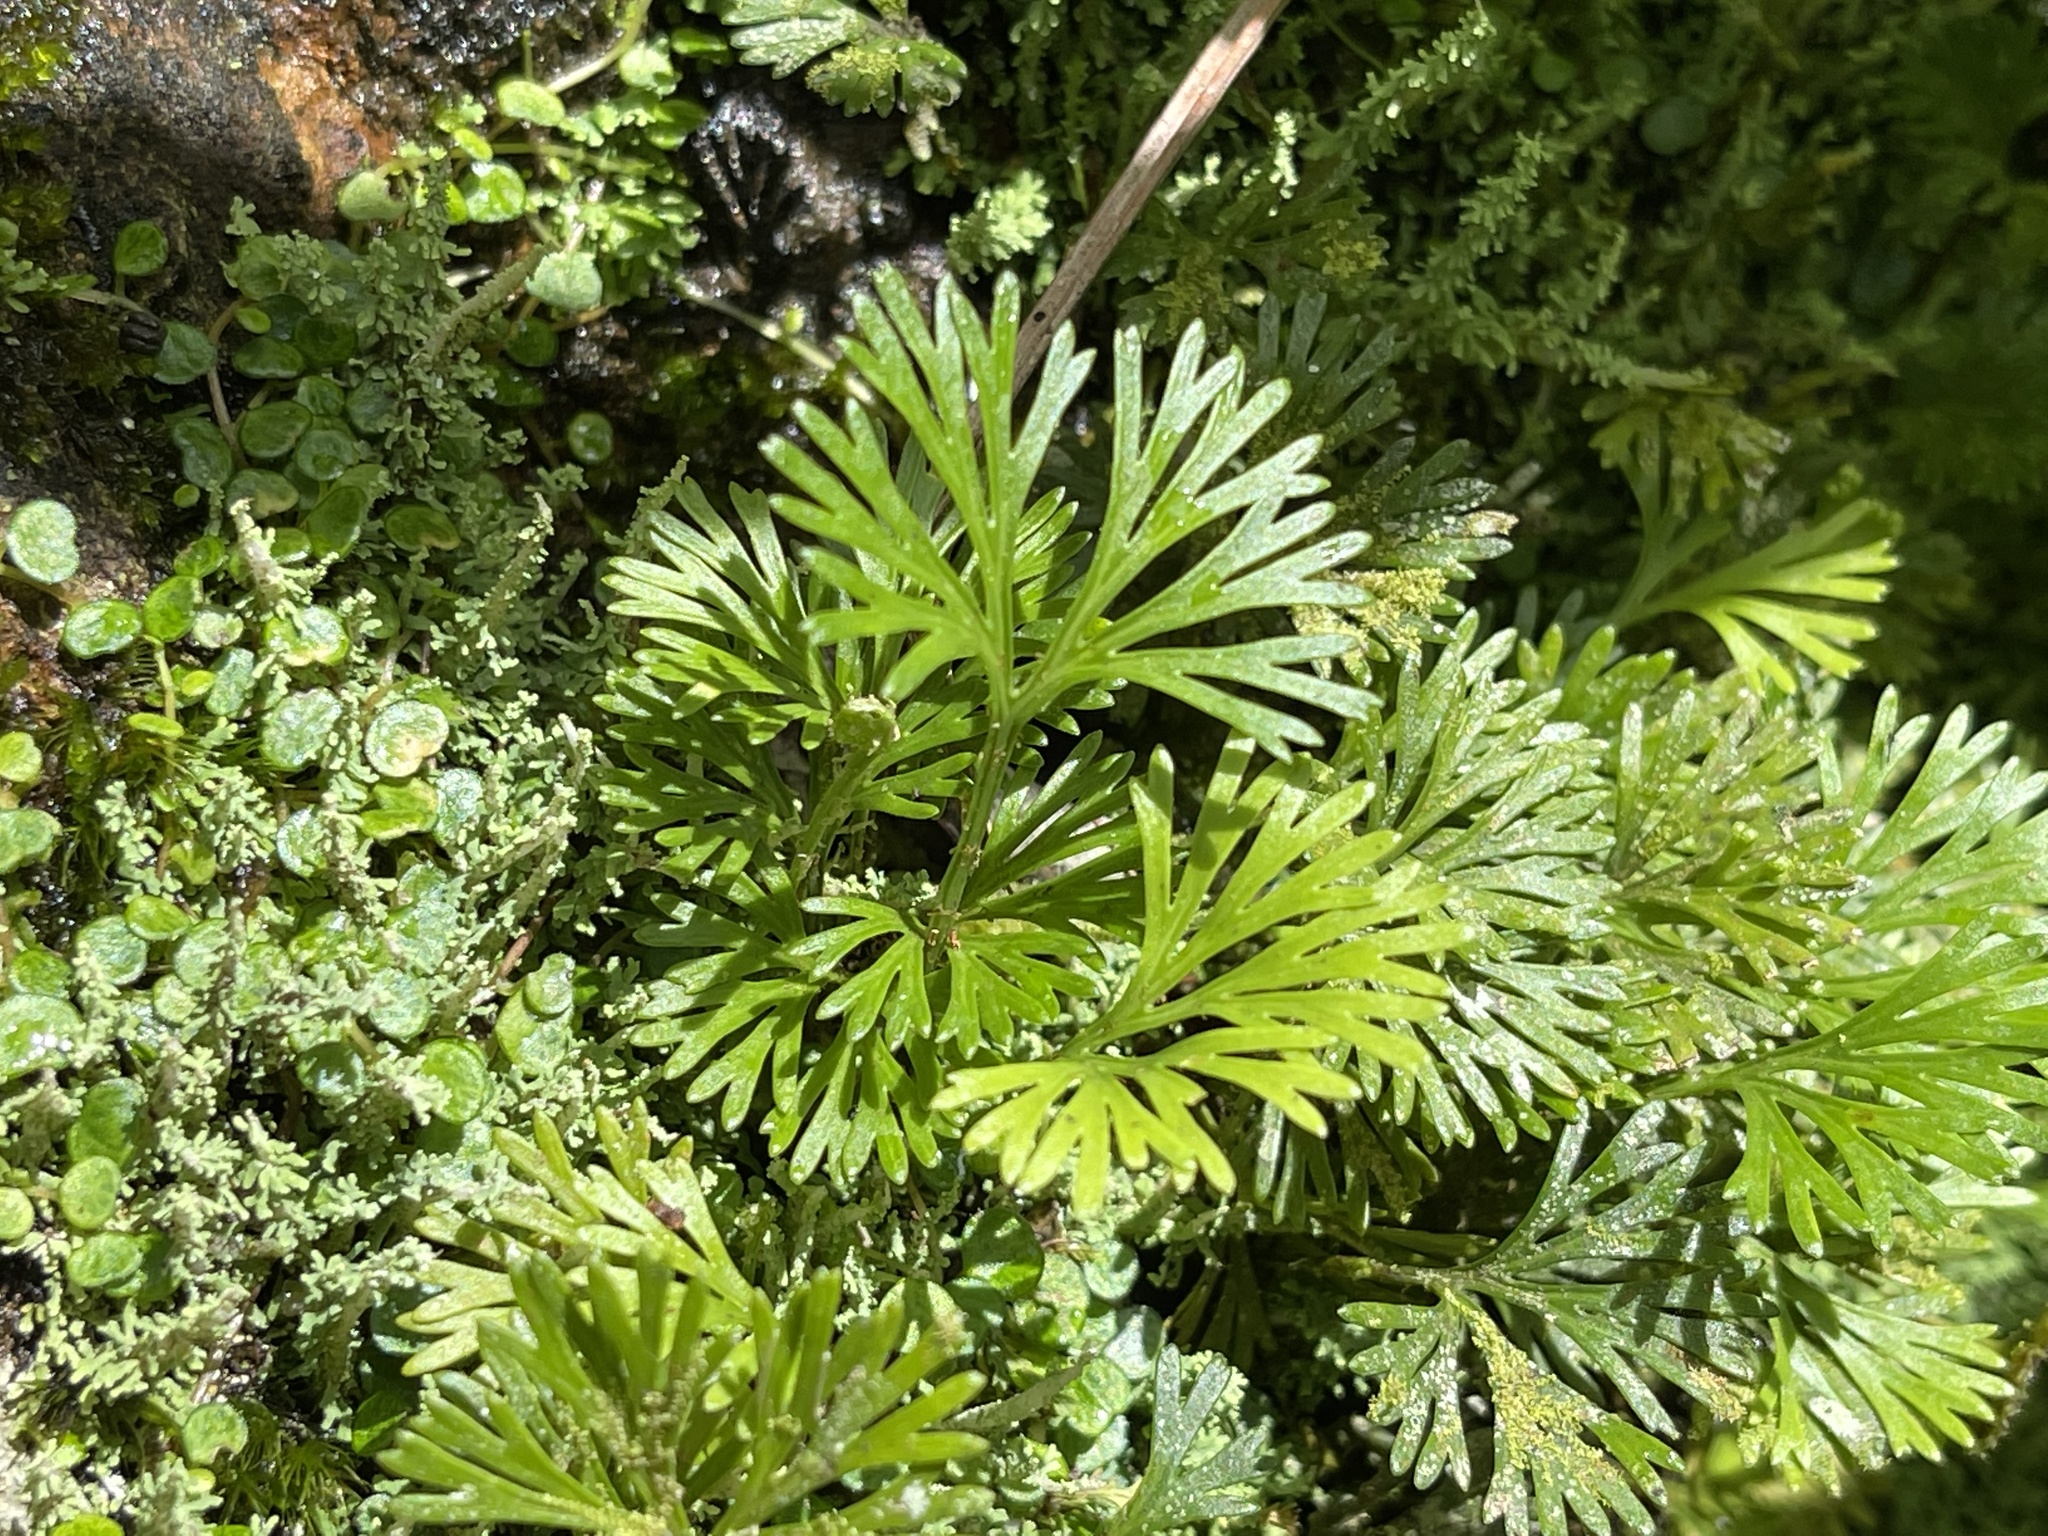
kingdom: Plantae
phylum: Tracheophyta
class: Polypodiopsida
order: Polypodiales
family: Dryopteridaceae
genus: Elaphoglossum
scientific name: Elaphoglossum peltatum
